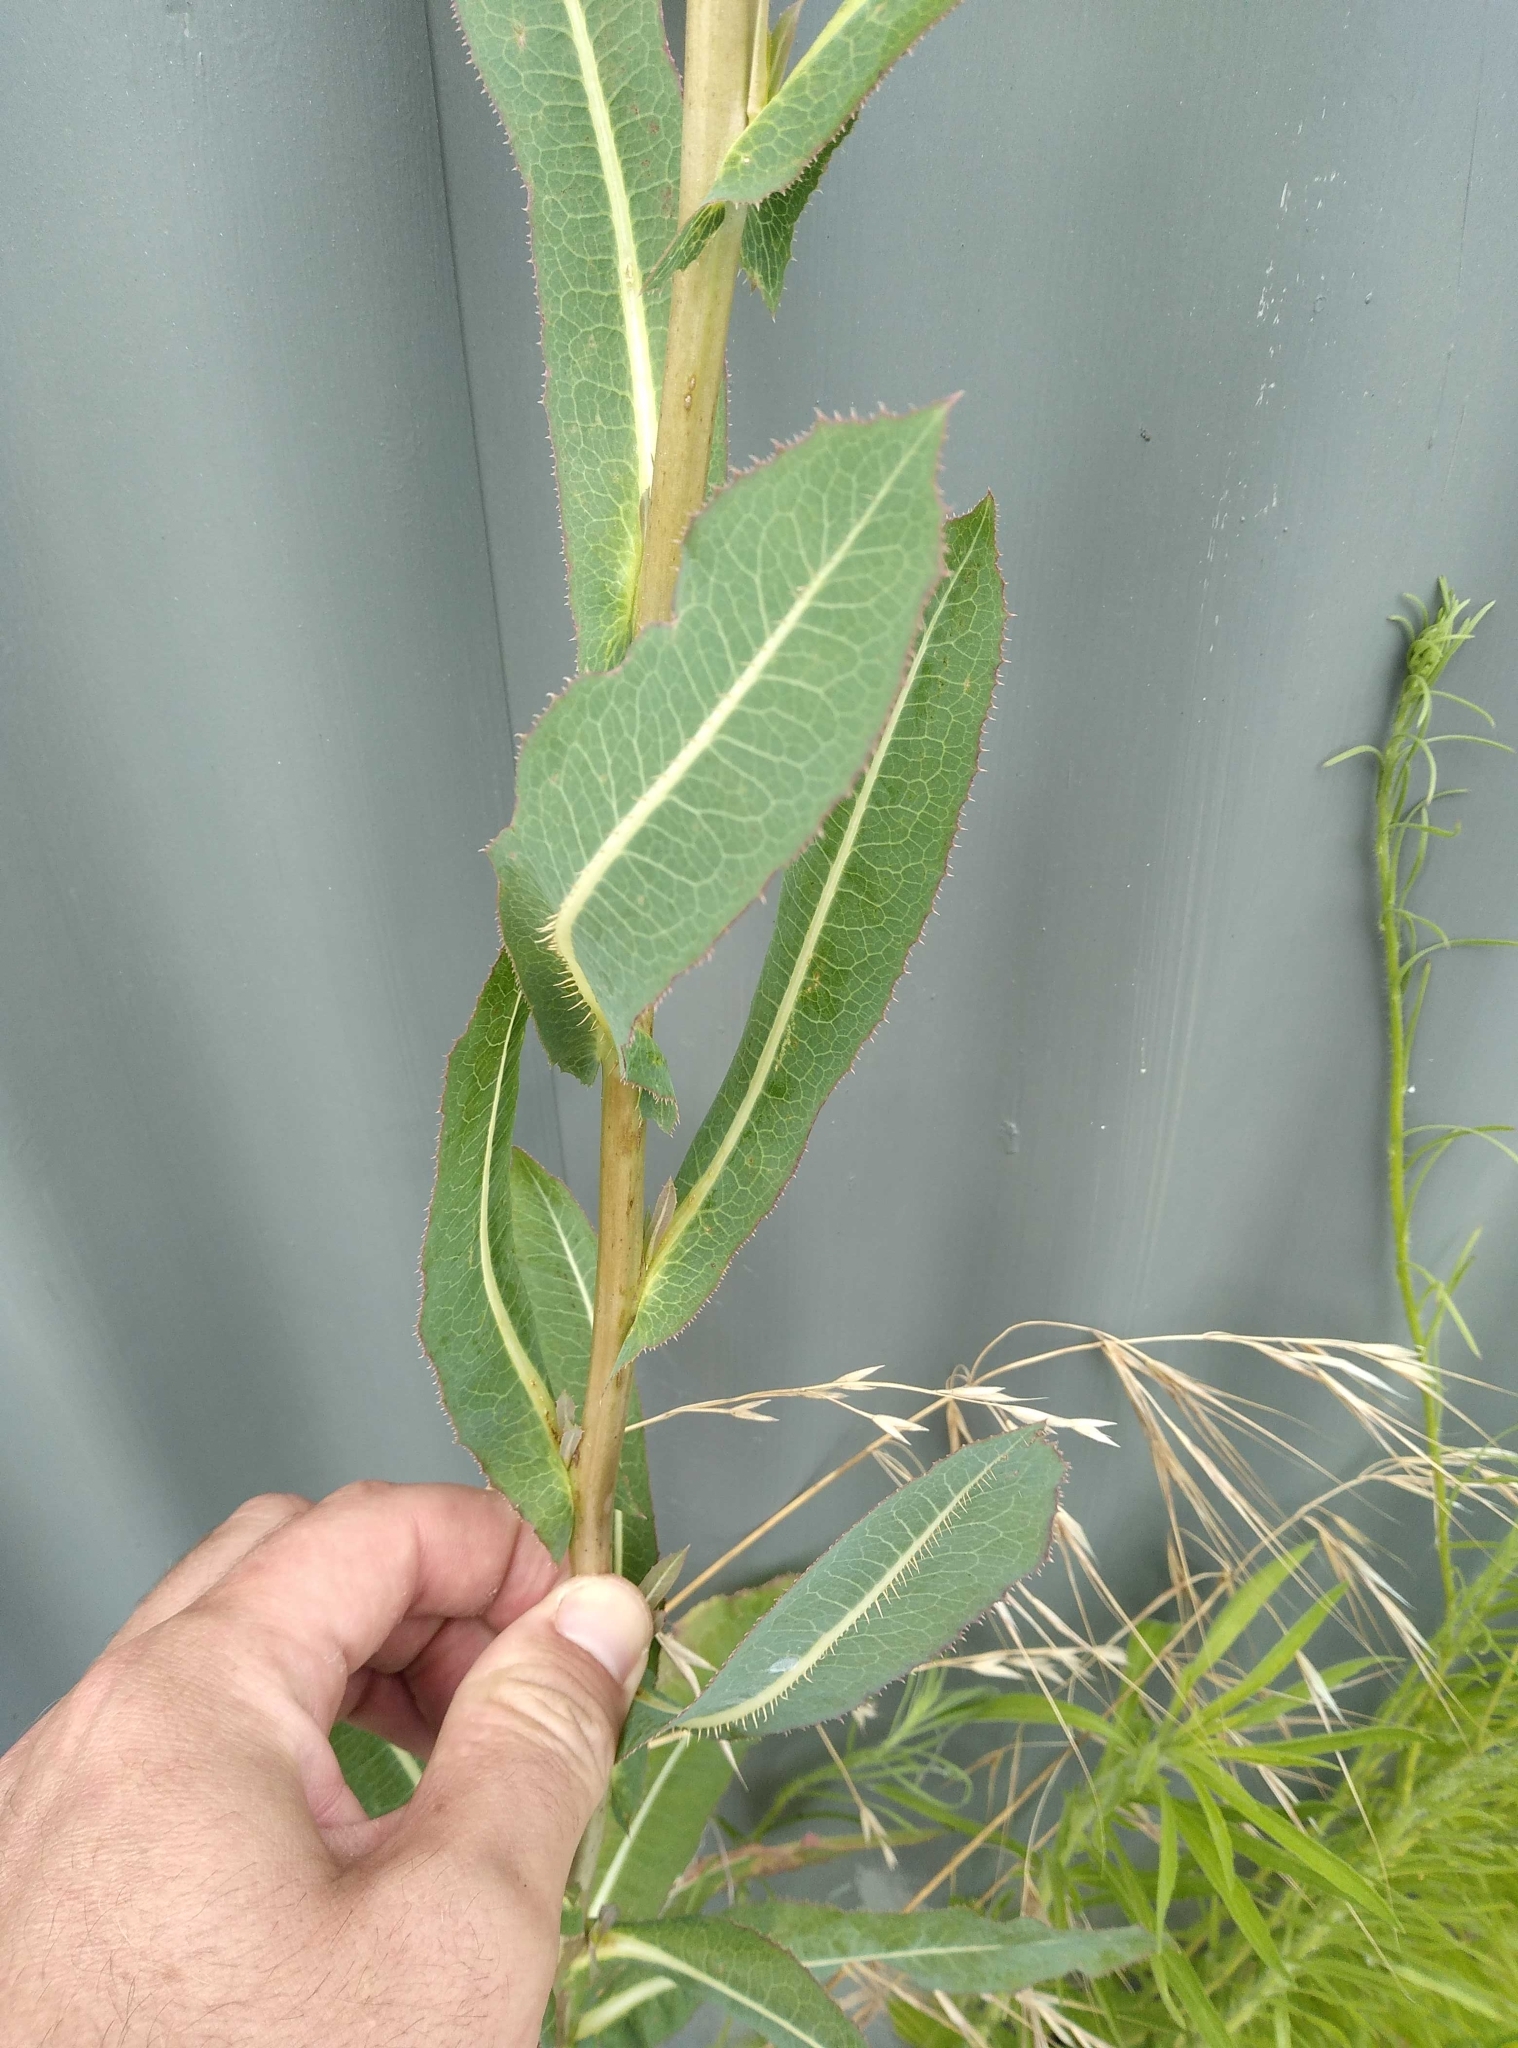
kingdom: Plantae
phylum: Tracheophyta
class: Magnoliopsida
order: Asterales
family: Asteraceae
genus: Lactuca
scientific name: Lactuca serriola
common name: Prickly lettuce
